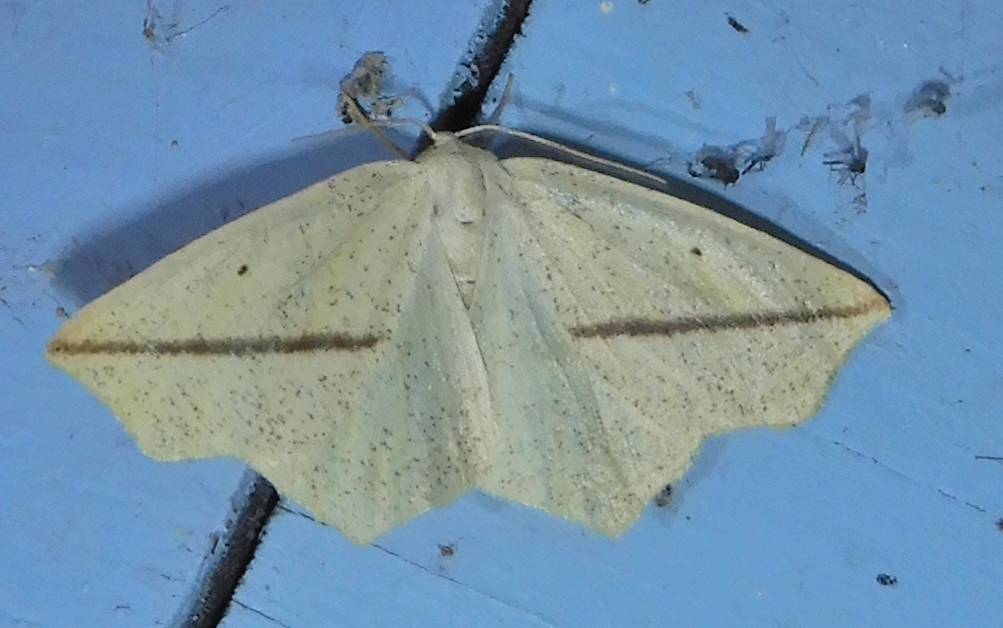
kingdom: Animalia
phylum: Arthropoda
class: Insecta
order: Lepidoptera
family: Geometridae
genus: Tetracis
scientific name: Tetracis crocallata
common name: Yellow slant-line
